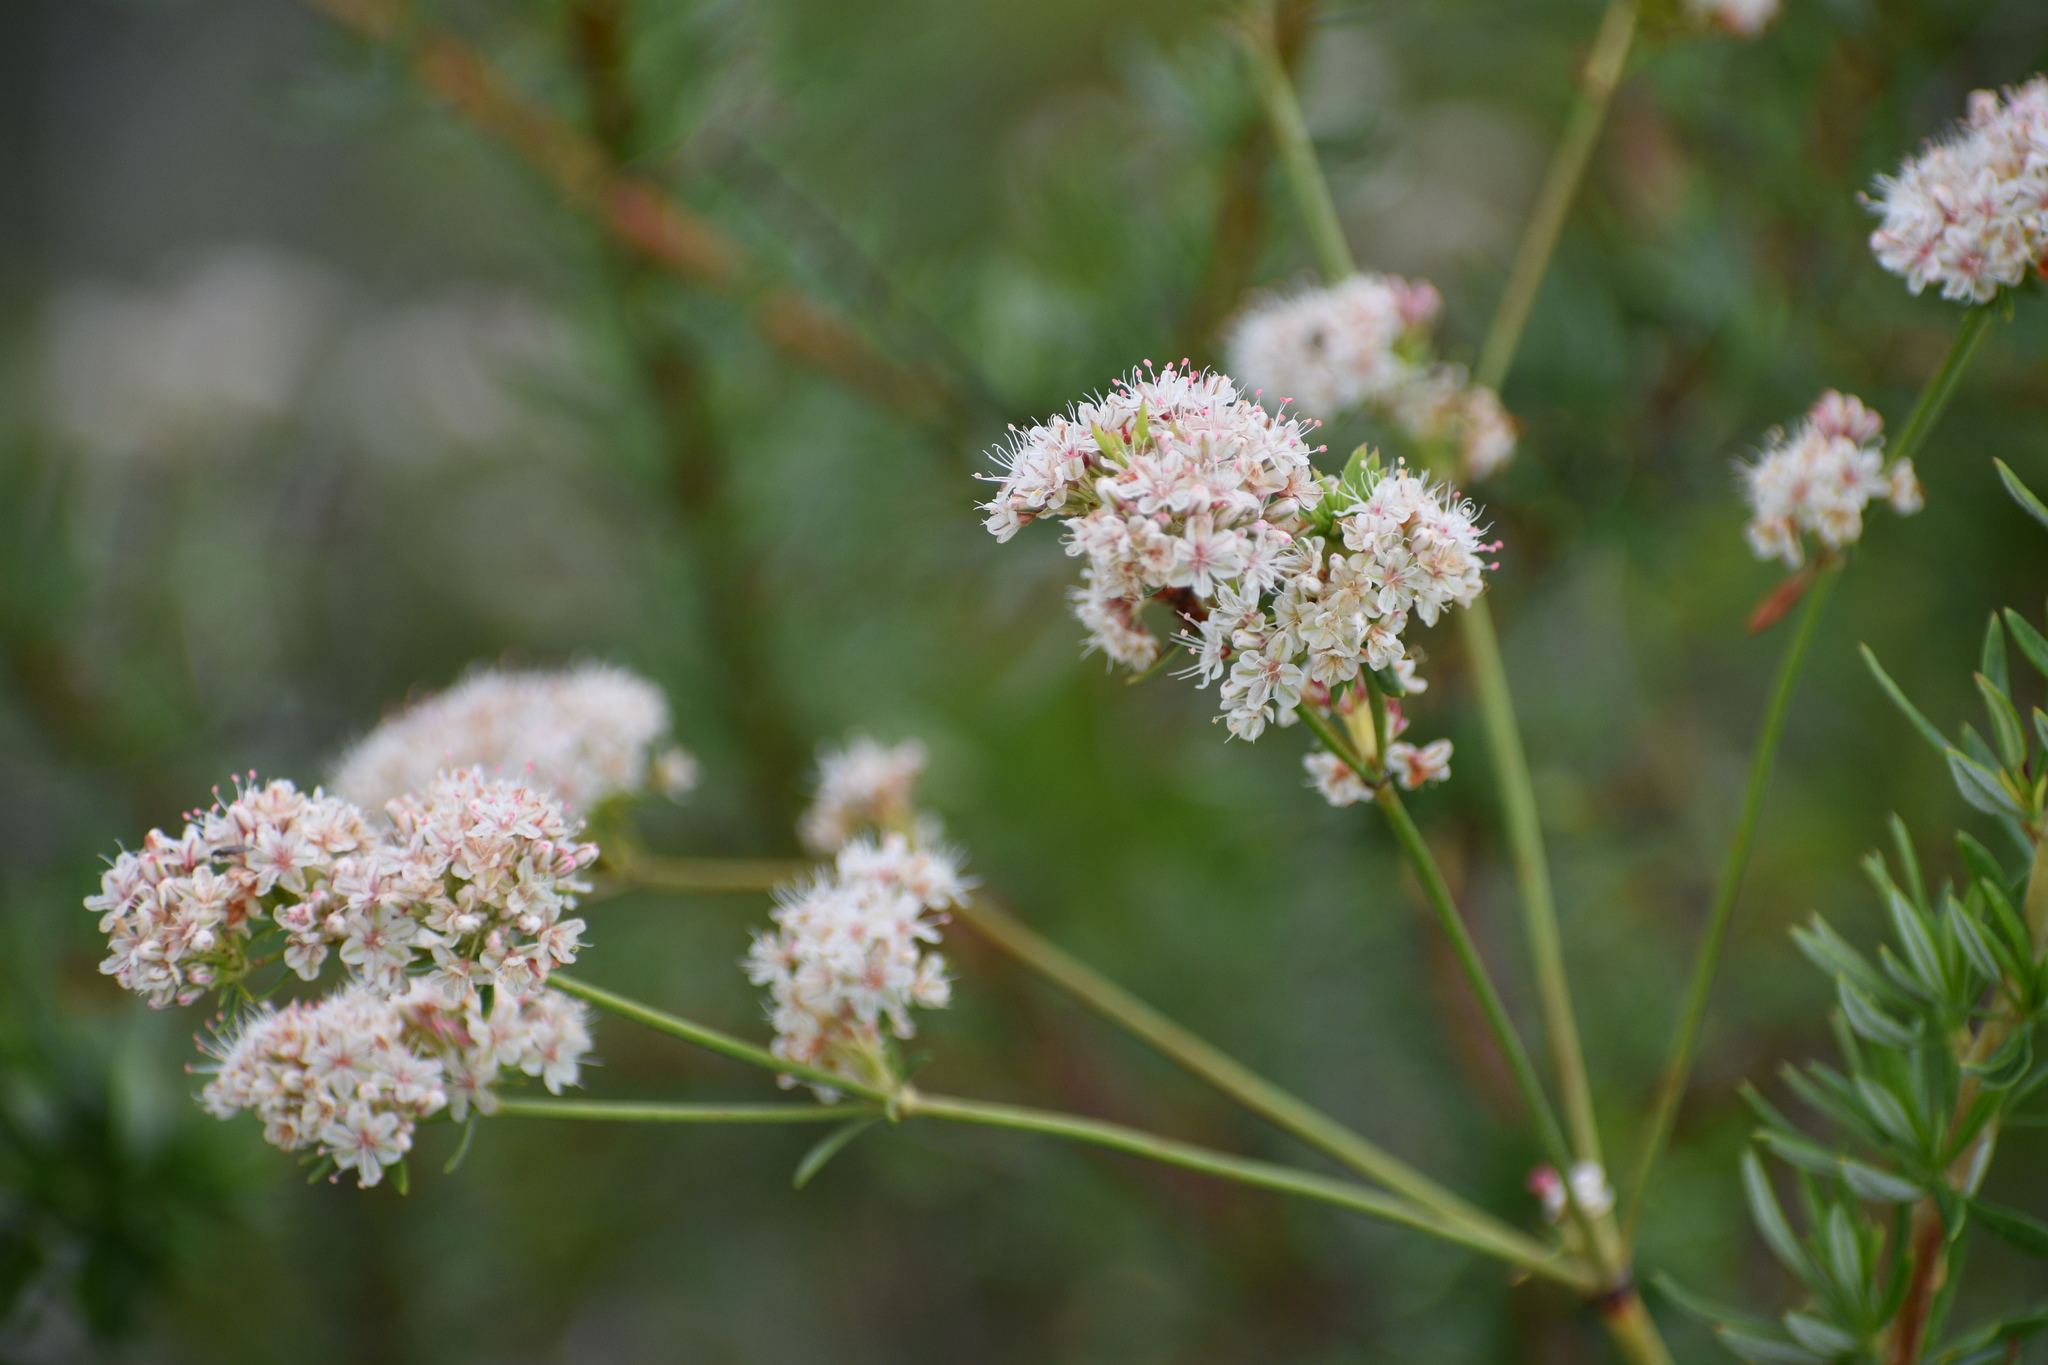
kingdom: Plantae
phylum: Tracheophyta
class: Magnoliopsida
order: Caryophyllales
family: Polygonaceae
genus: Eriogonum
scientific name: Eriogonum fasciculatum
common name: California wild buckwheat
